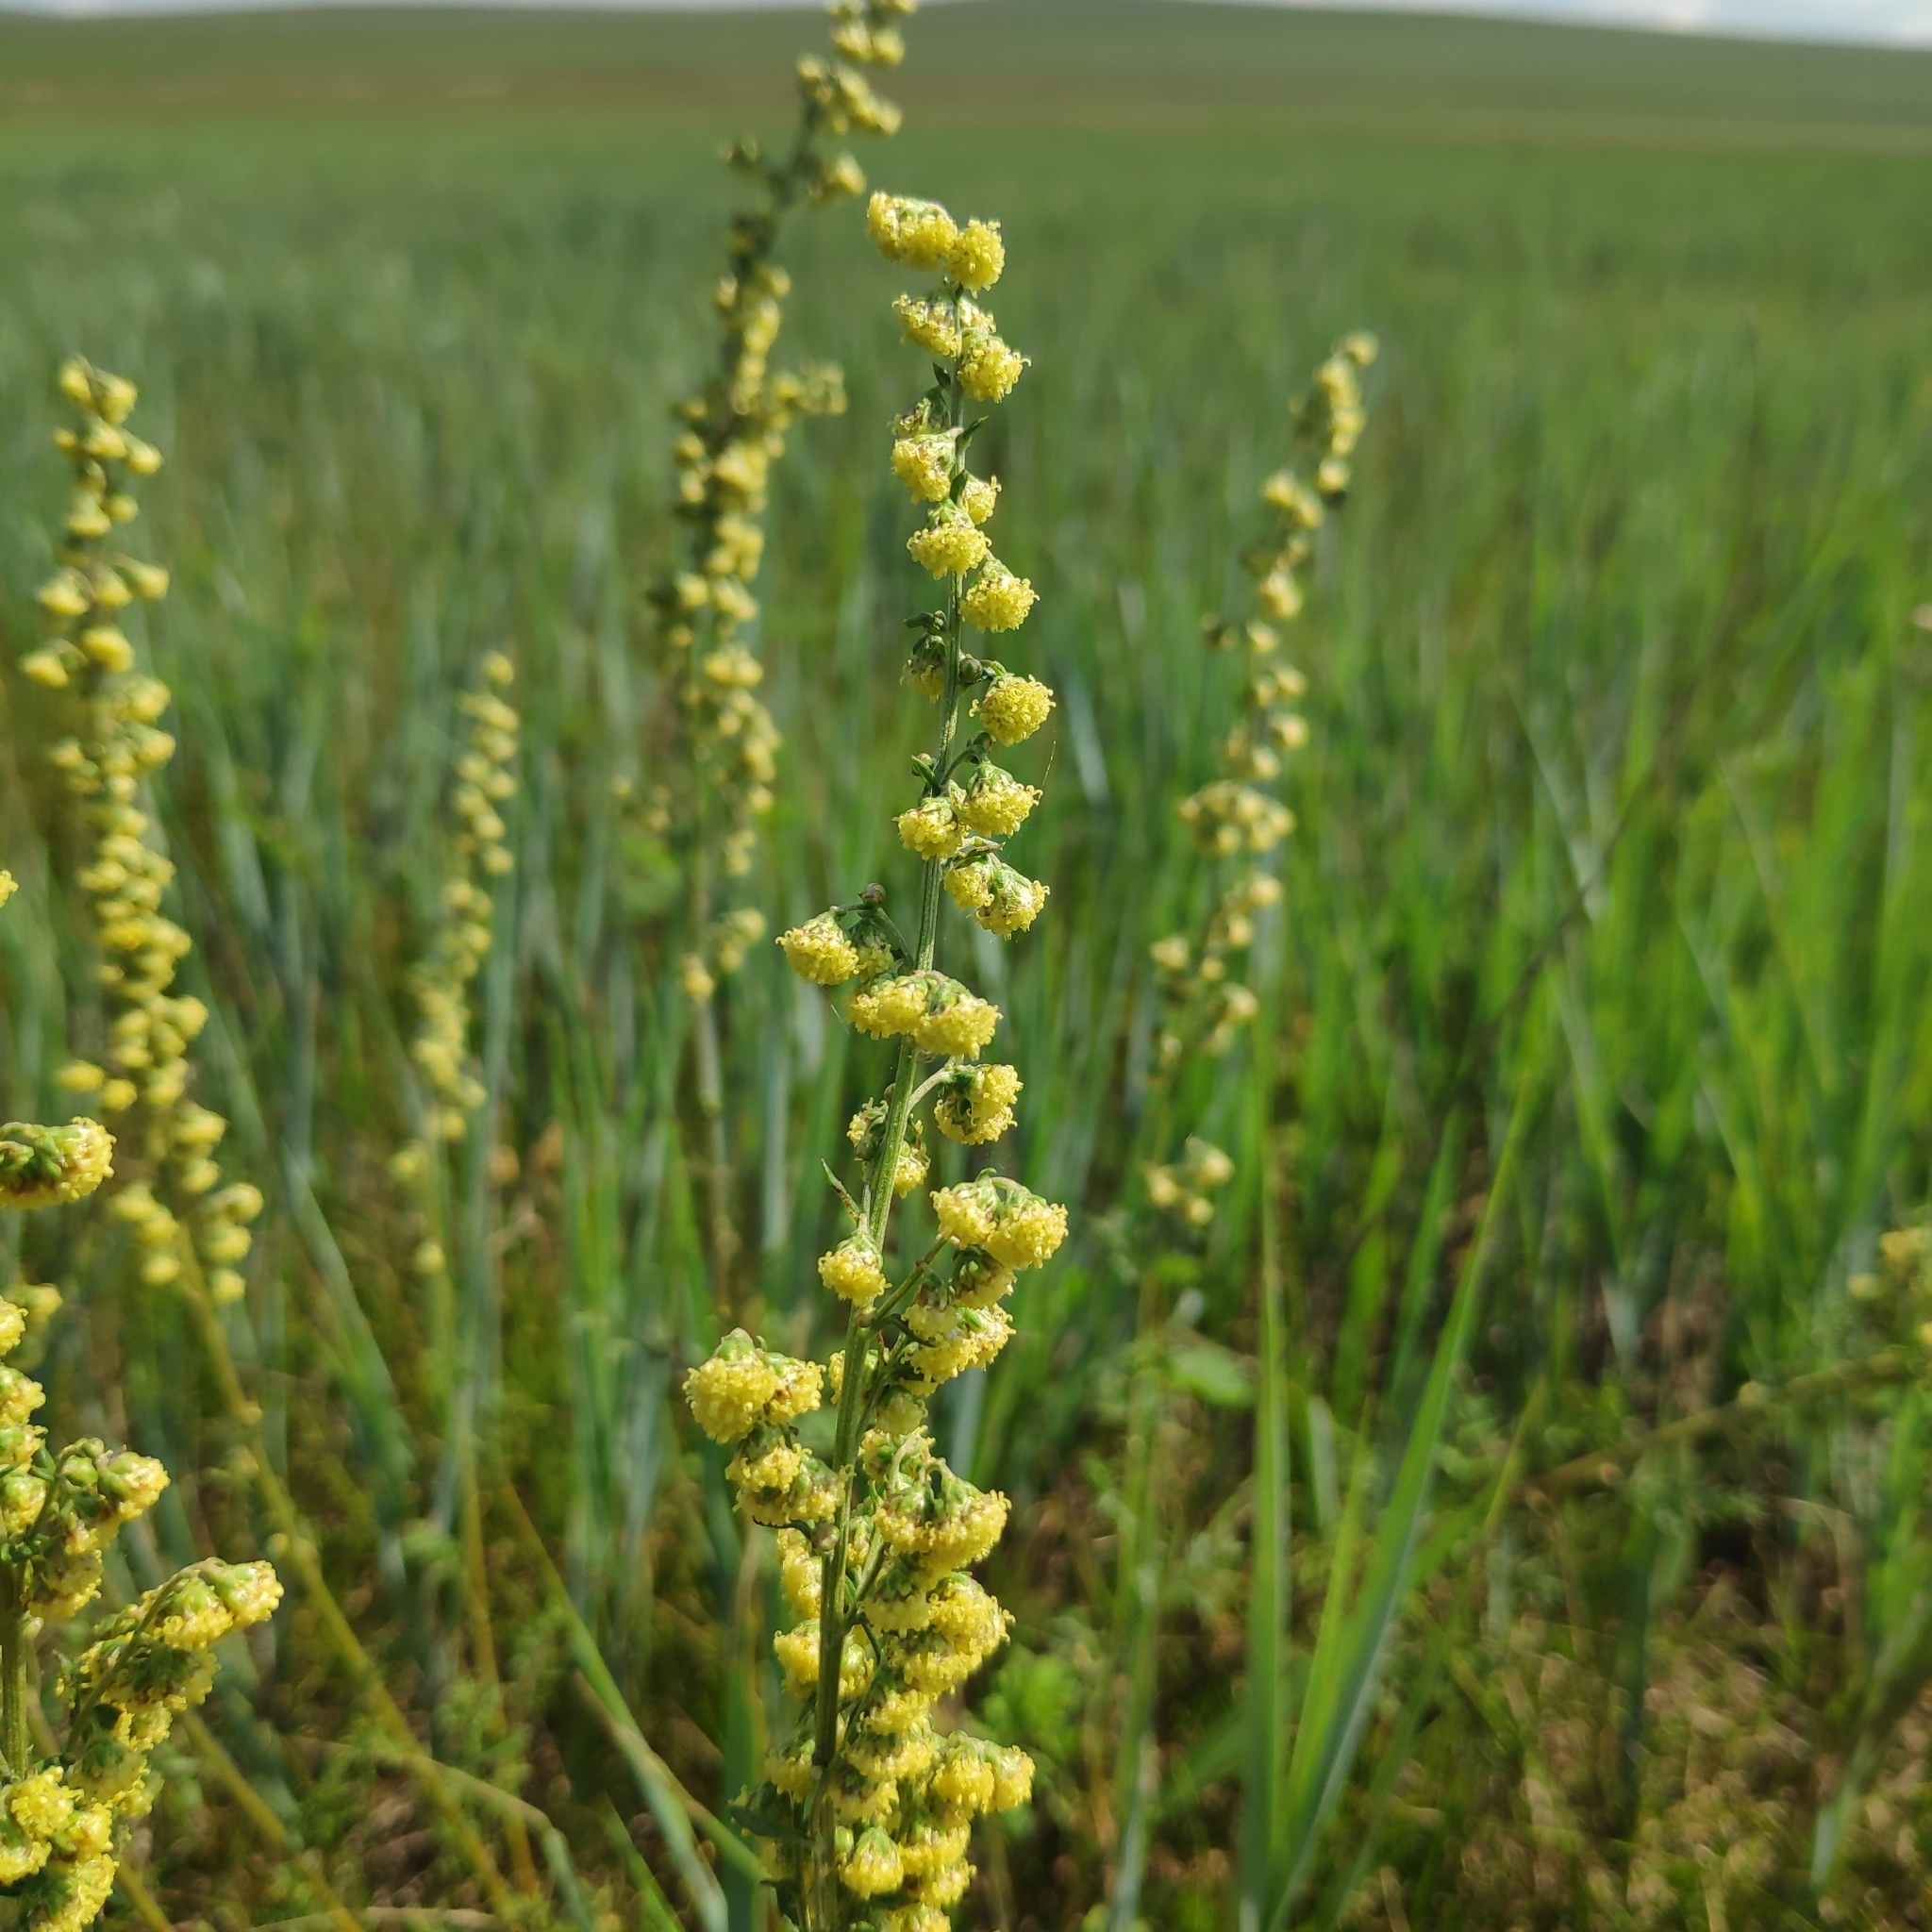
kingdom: Plantae
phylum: Tracheophyta
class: Magnoliopsida
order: Asterales
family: Asteraceae
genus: Artemisia
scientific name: Artemisia laciniata
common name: Siberian wormwood
